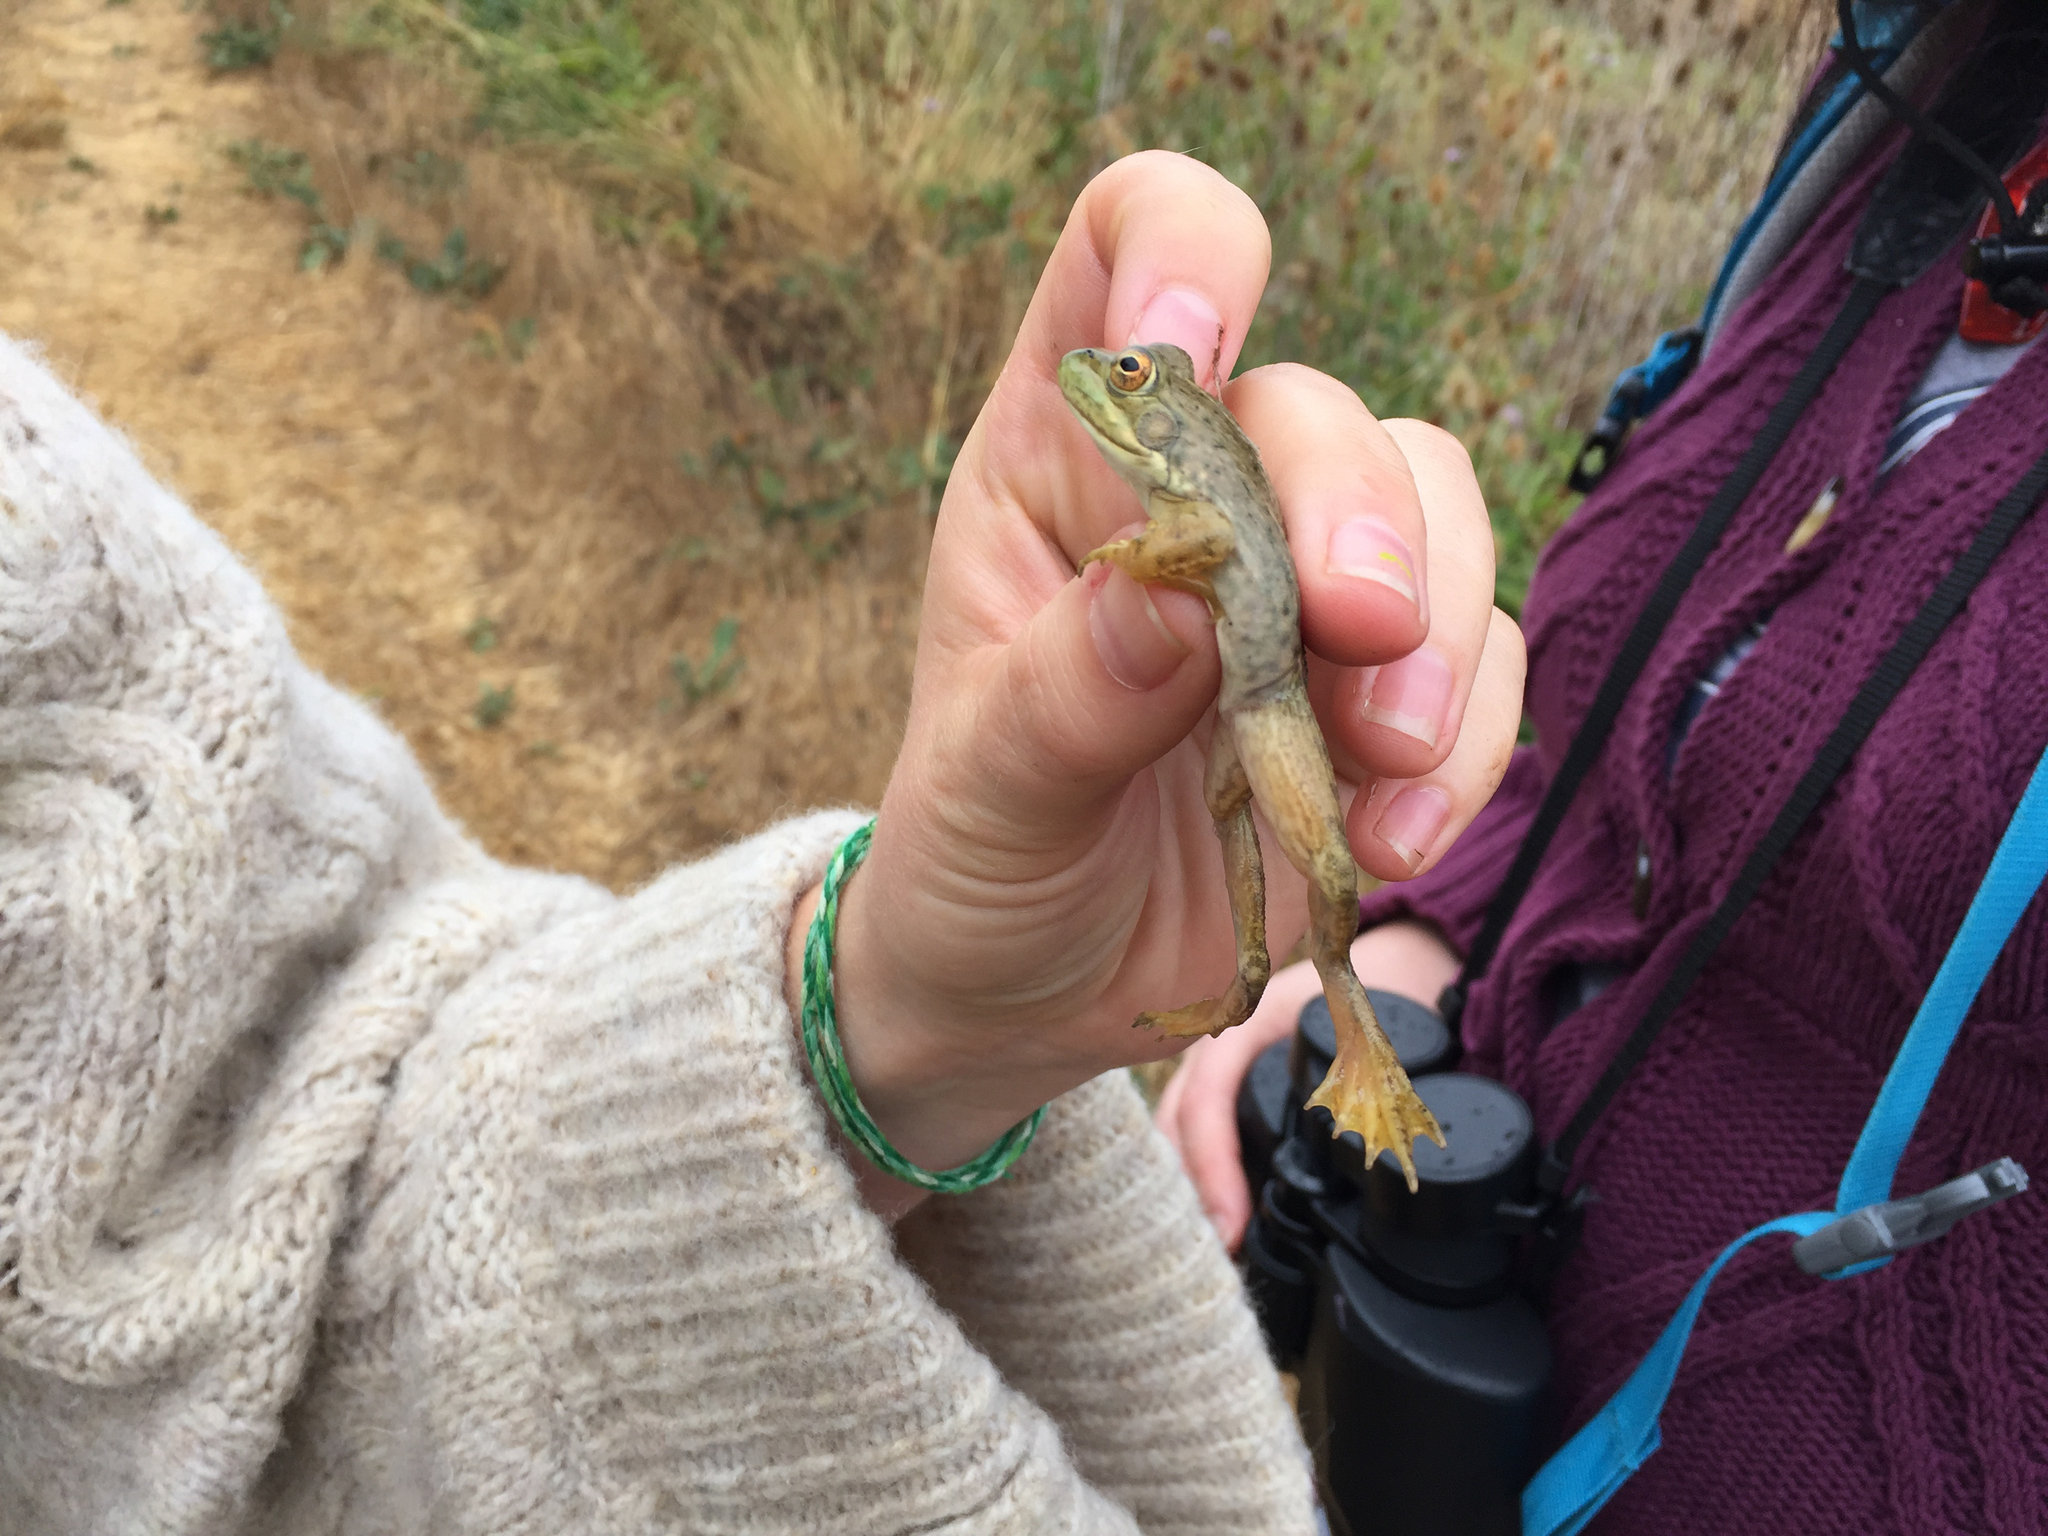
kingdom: Animalia
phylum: Chordata
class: Amphibia
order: Anura
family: Ranidae
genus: Lithobates
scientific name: Lithobates catesbeianus
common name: American bullfrog
